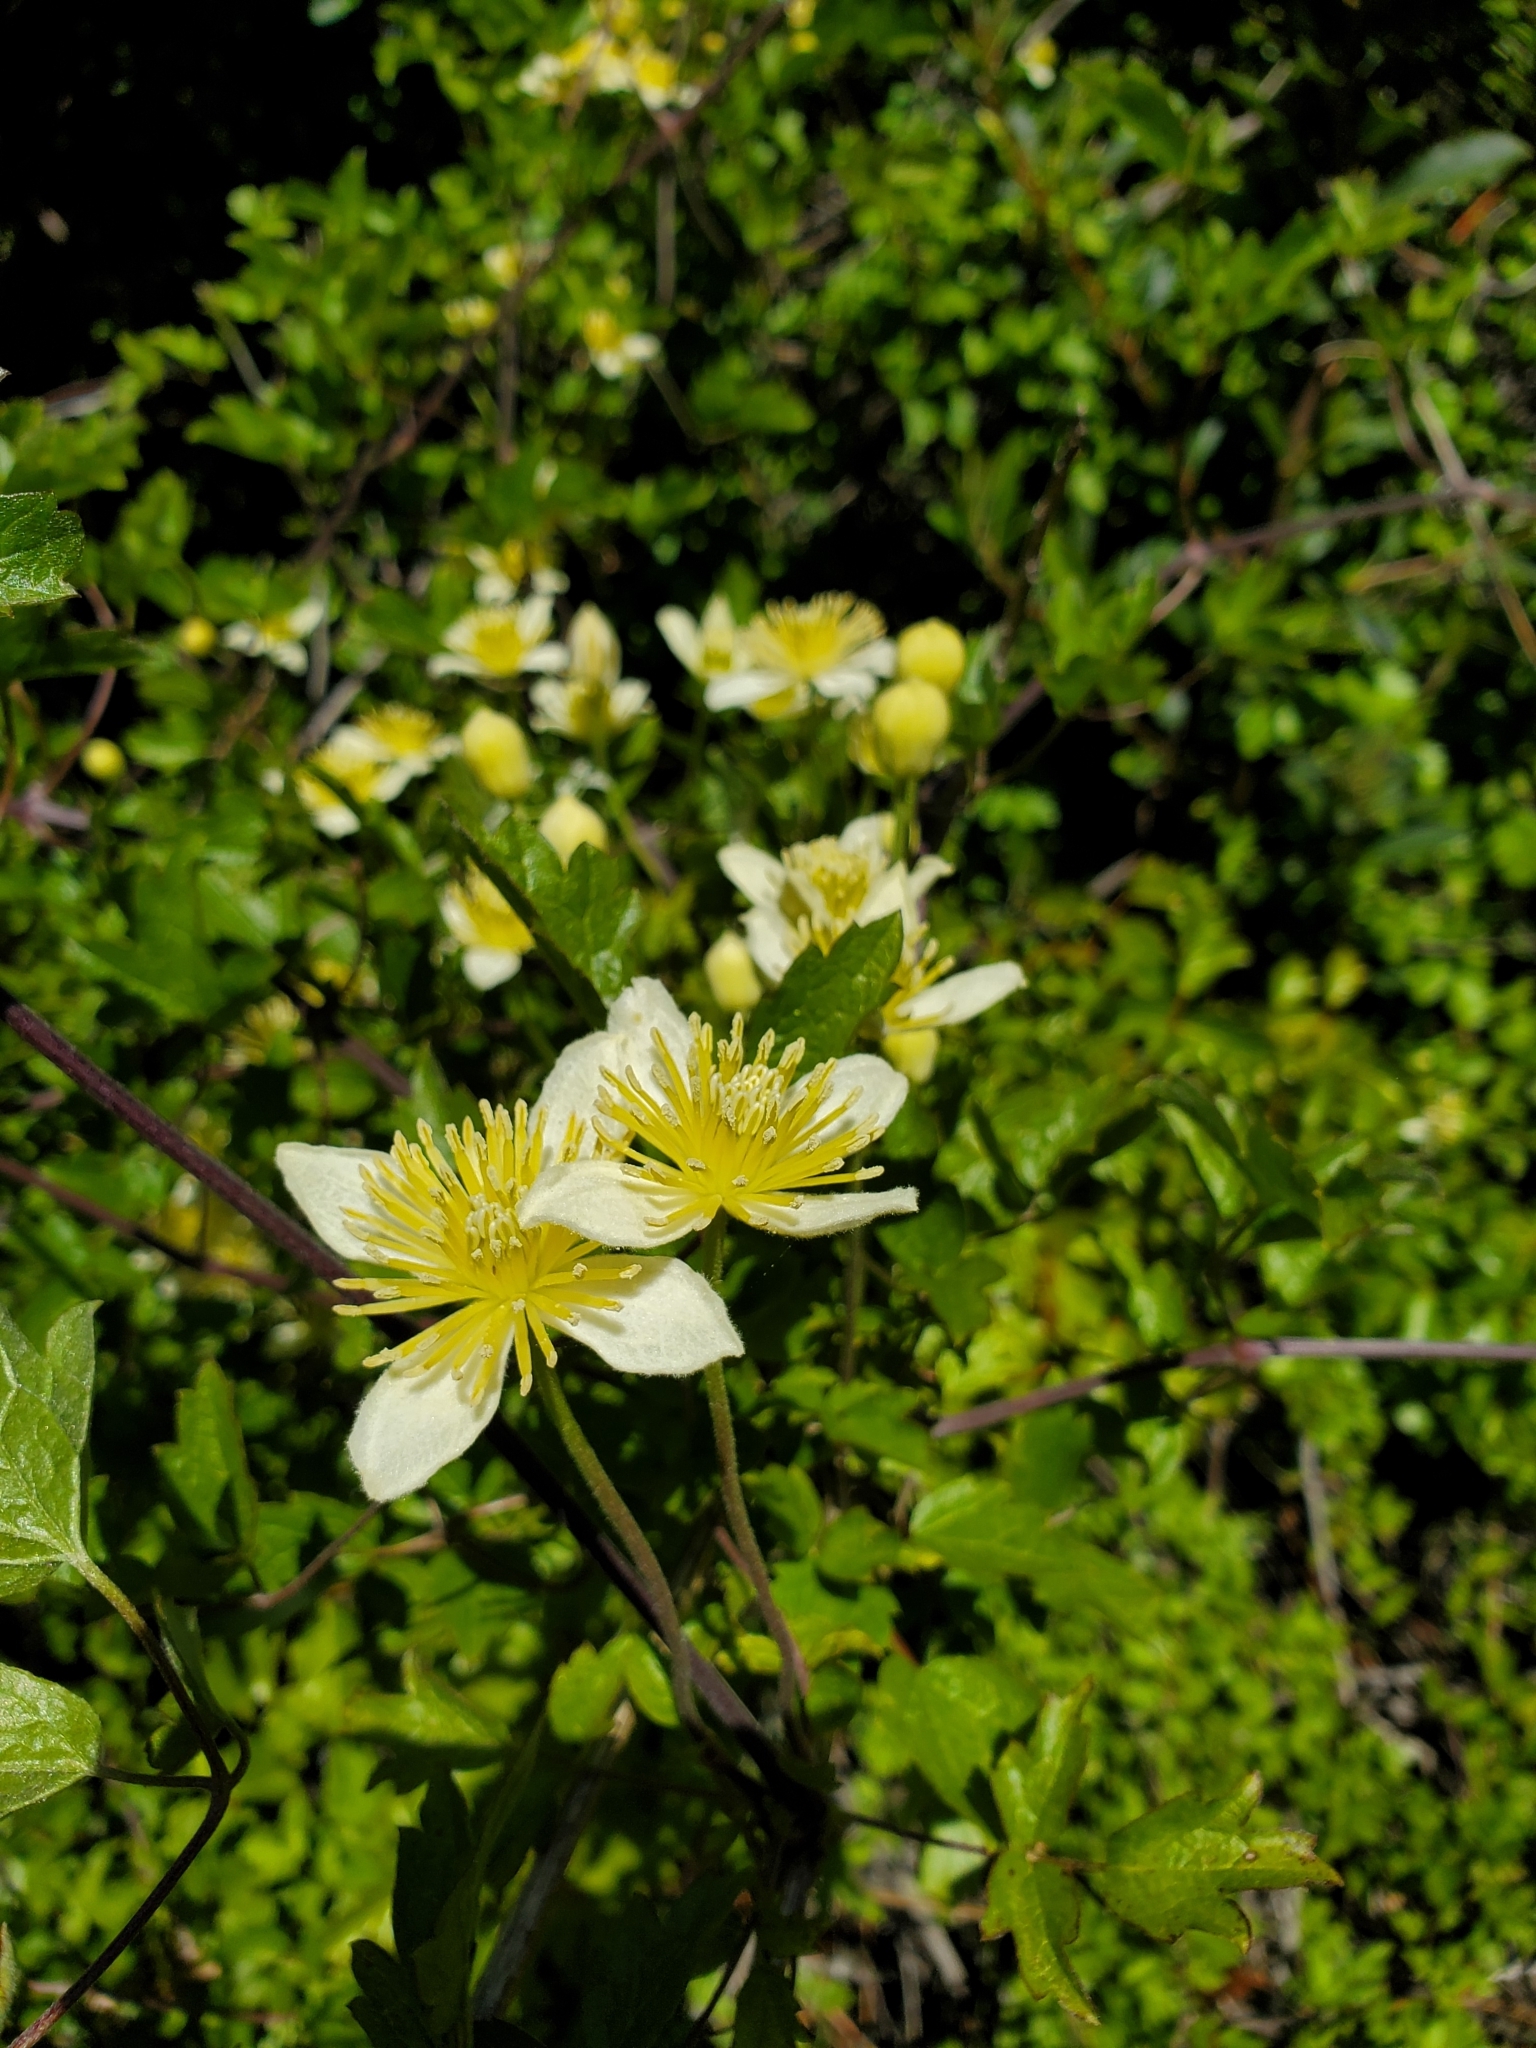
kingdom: Plantae
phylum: Tracheophyta
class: Magnoliopsida
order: Ranunculales
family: Ranunculaceae
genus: Clematis
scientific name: Clematis lasiantha
